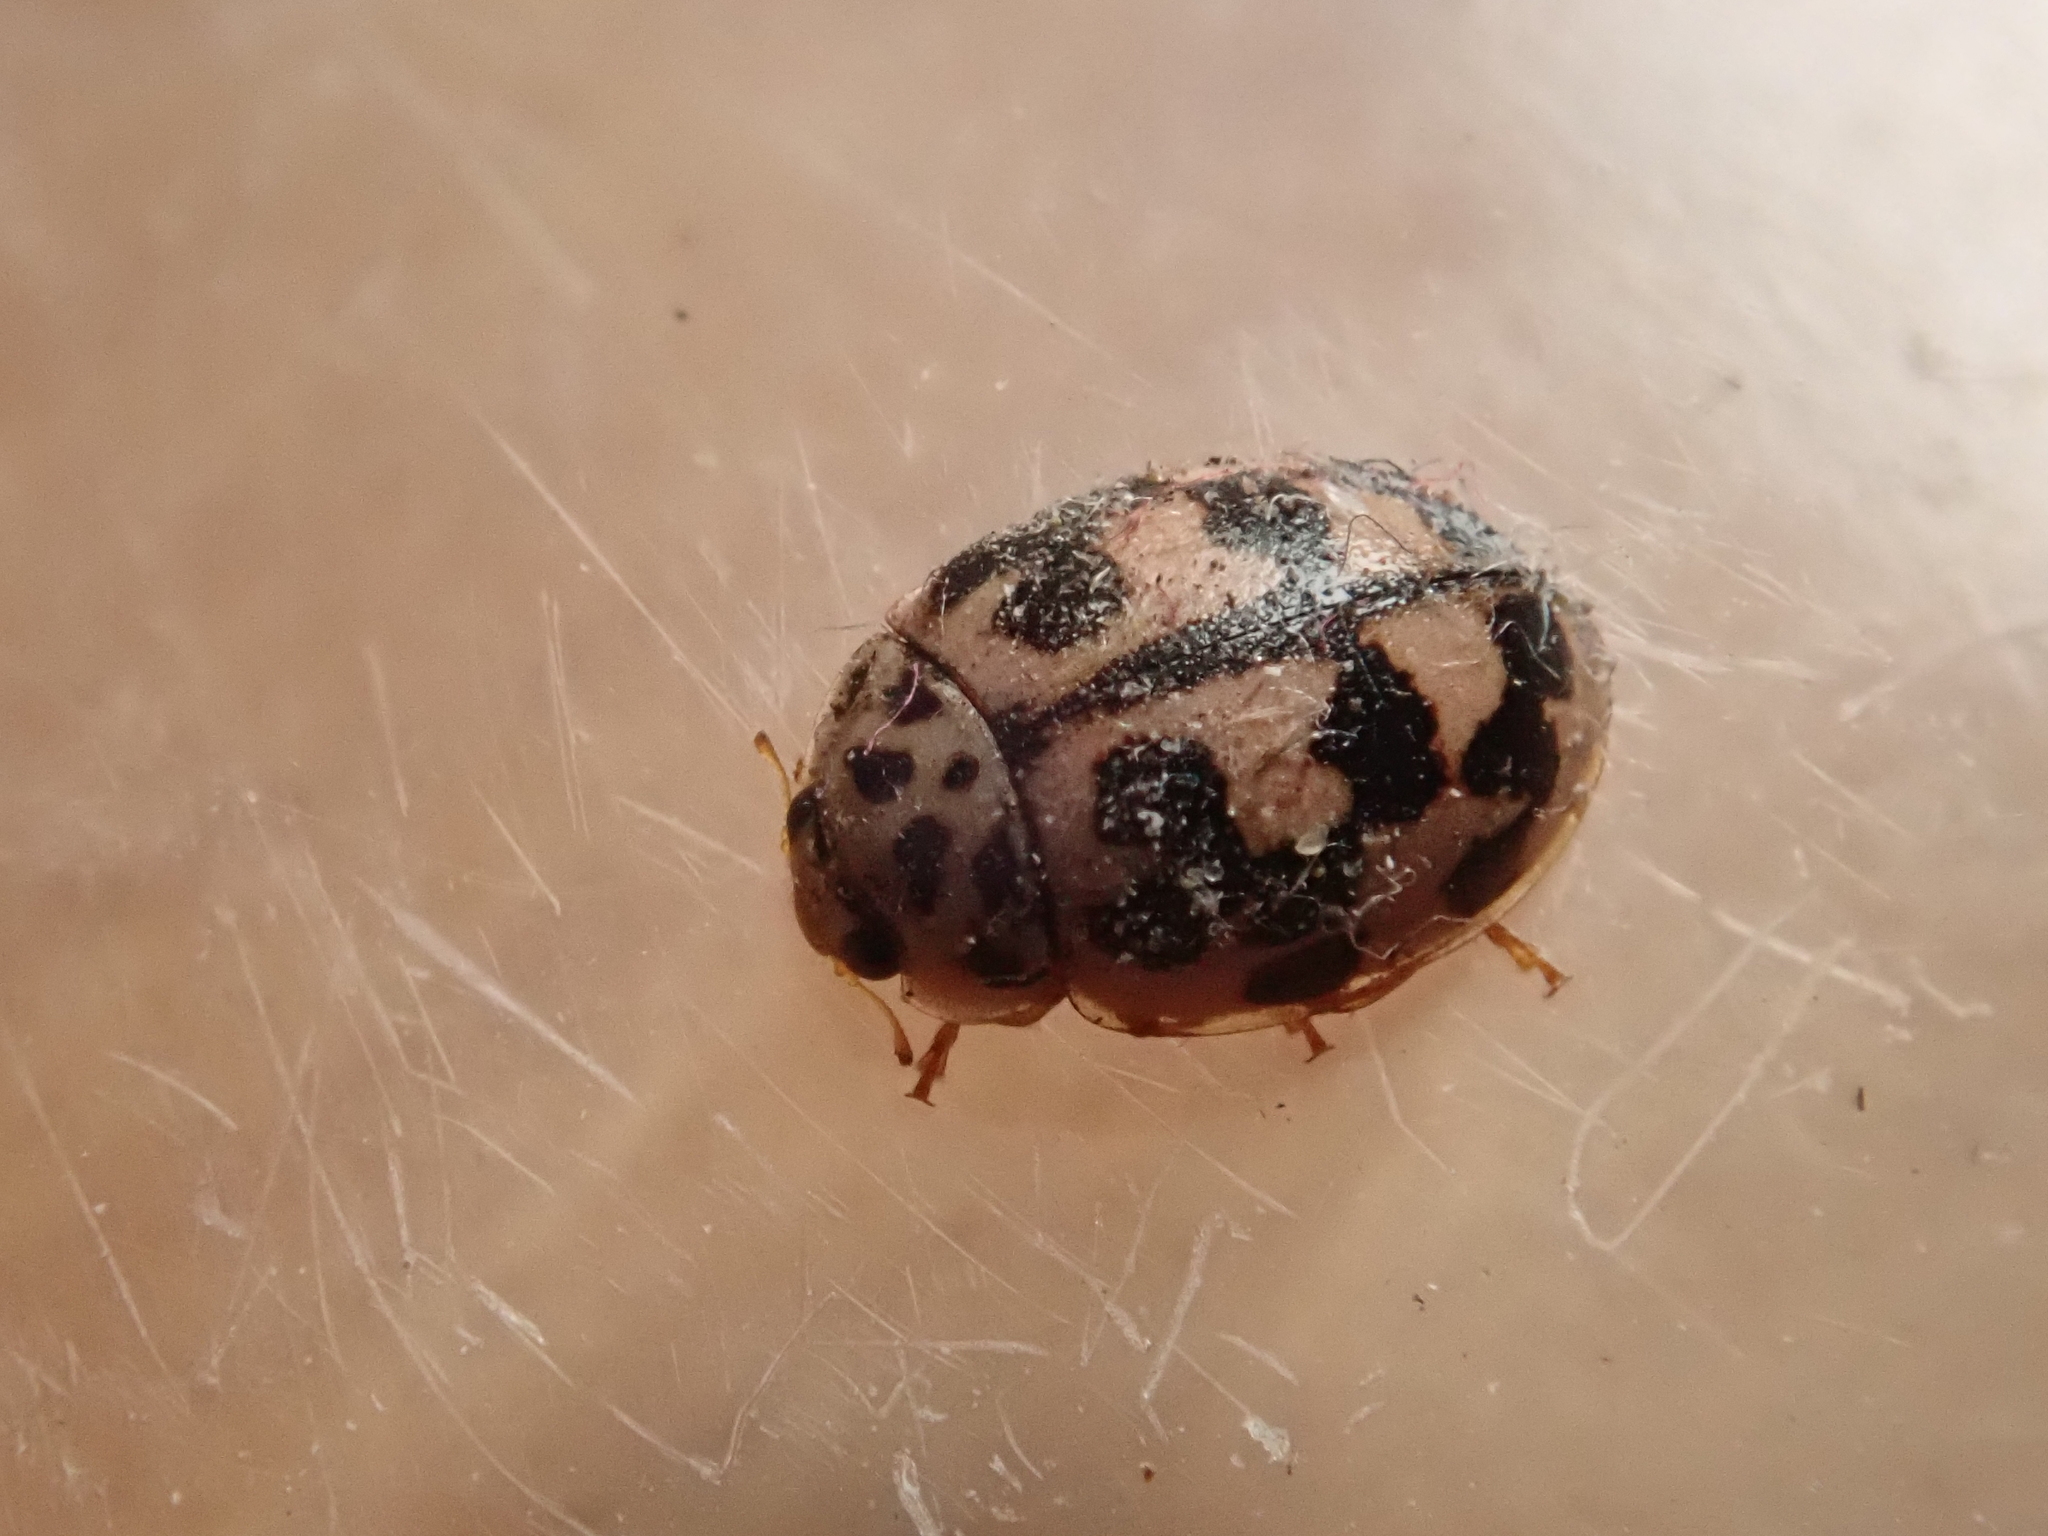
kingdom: Animalia
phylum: Arthropoda
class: Insecta
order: Coleoptera
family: Coccinellidae
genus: Oenopia
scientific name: Oenopia conglobata
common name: Ladybird beetle
